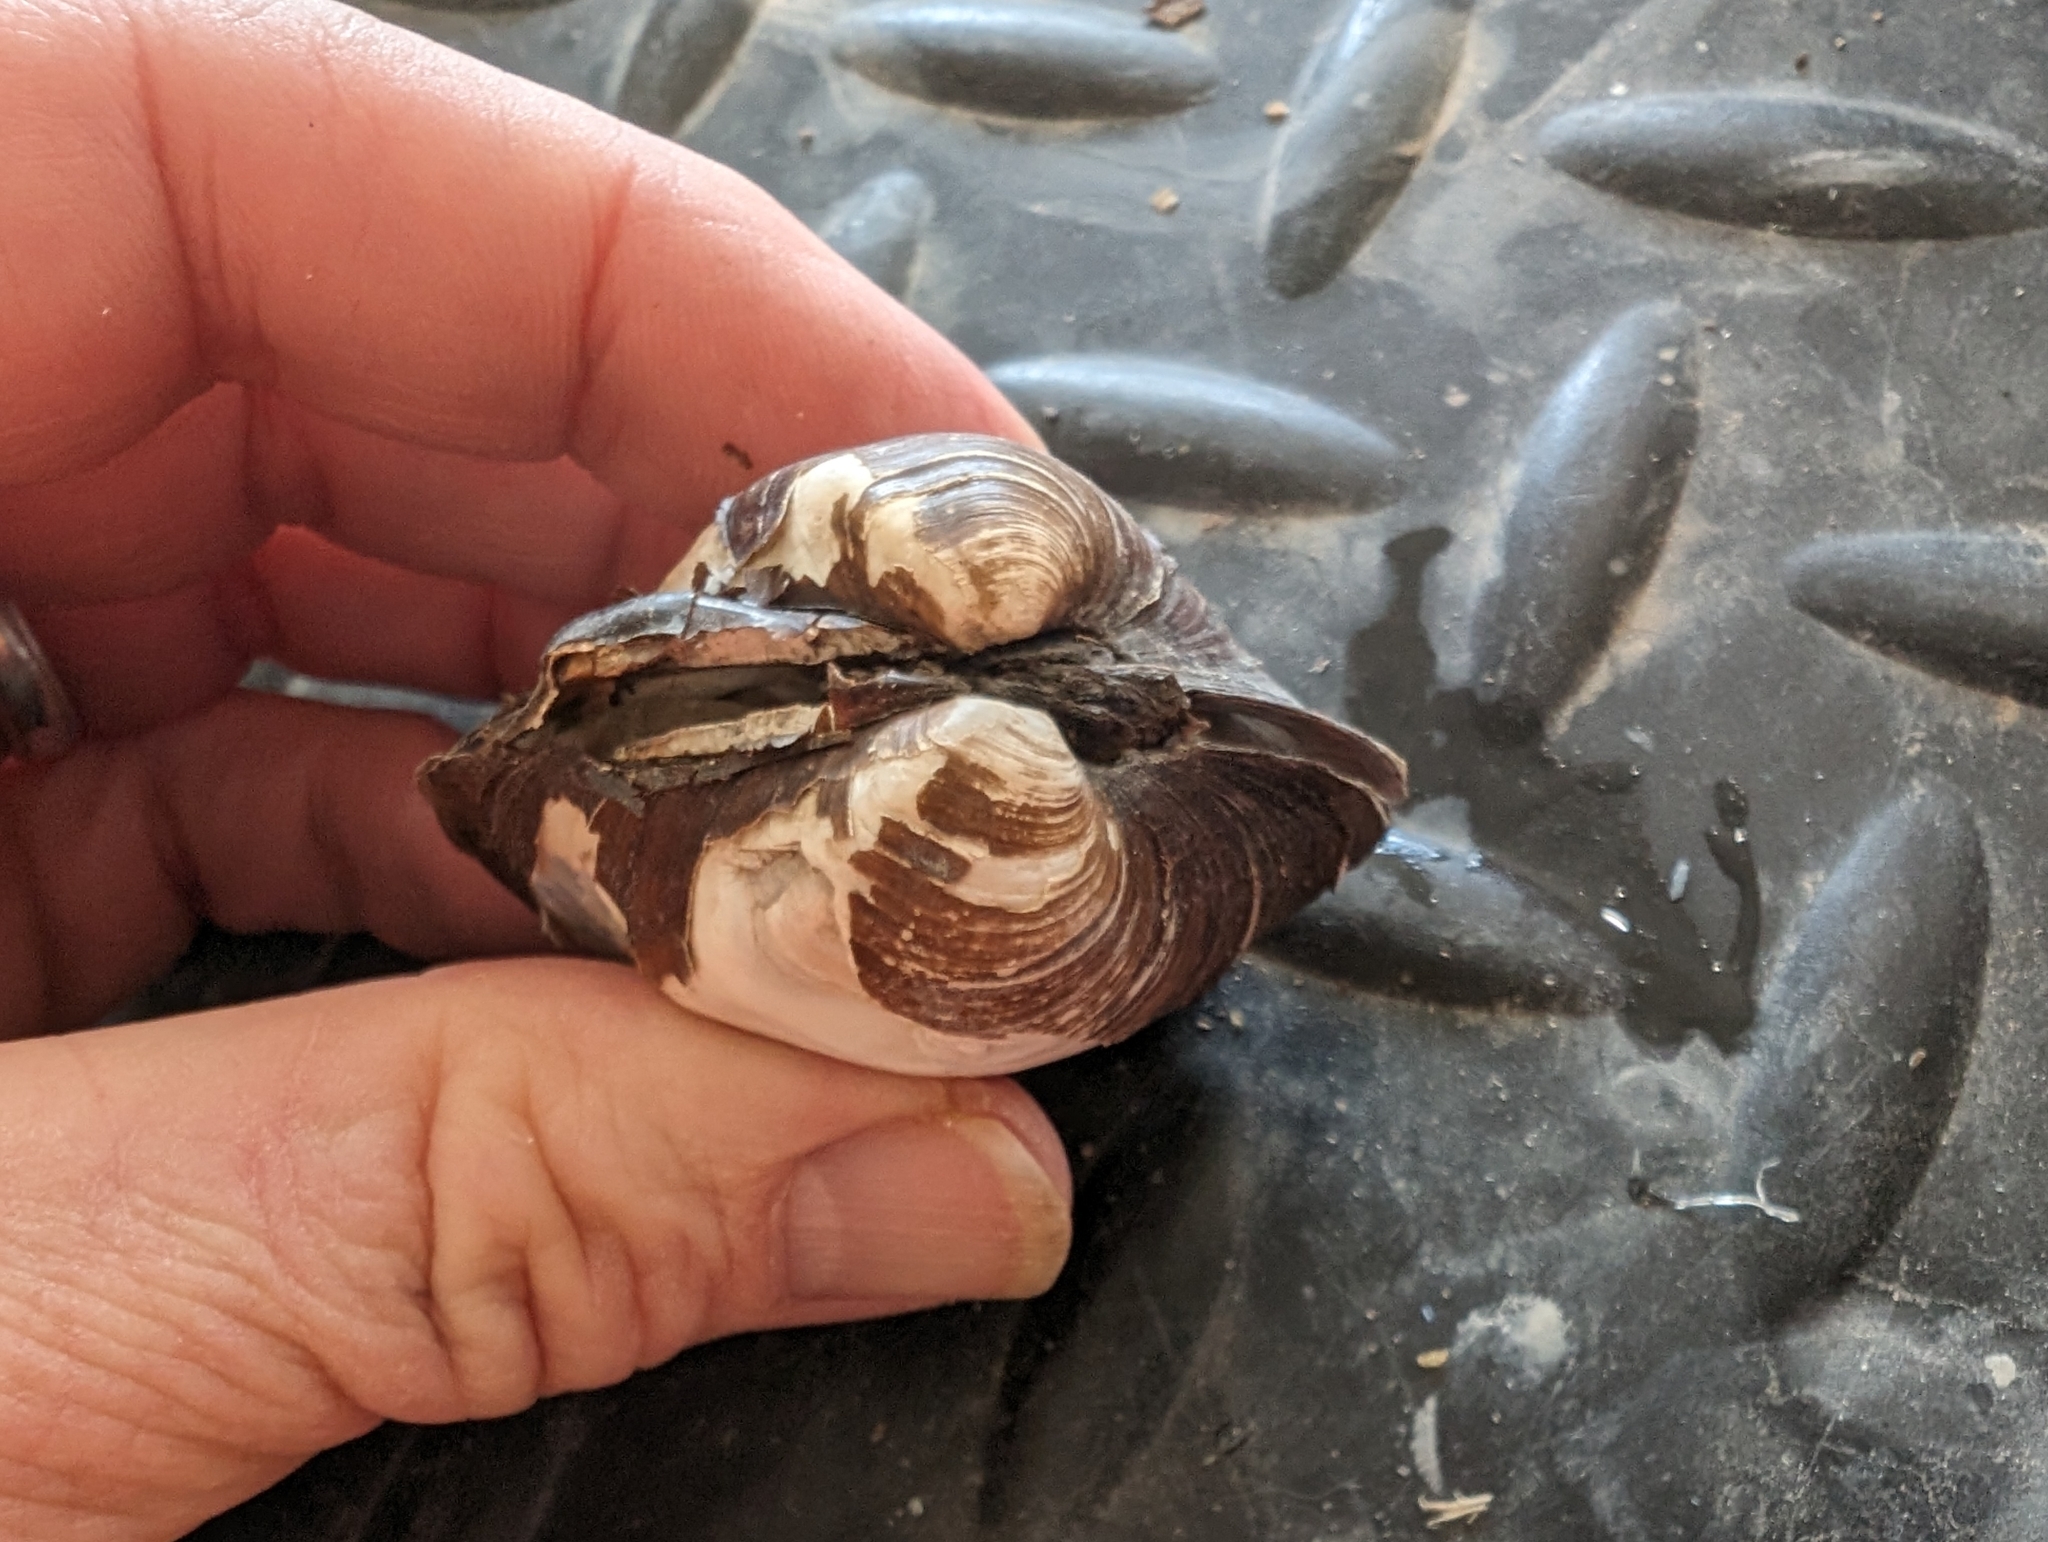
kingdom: Animalia
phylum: Mollusca
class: Bivalvia
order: Unionida
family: Unionidae
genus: Cyclonaias
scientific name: Cyclonaias pustulosa
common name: Pimpleback
